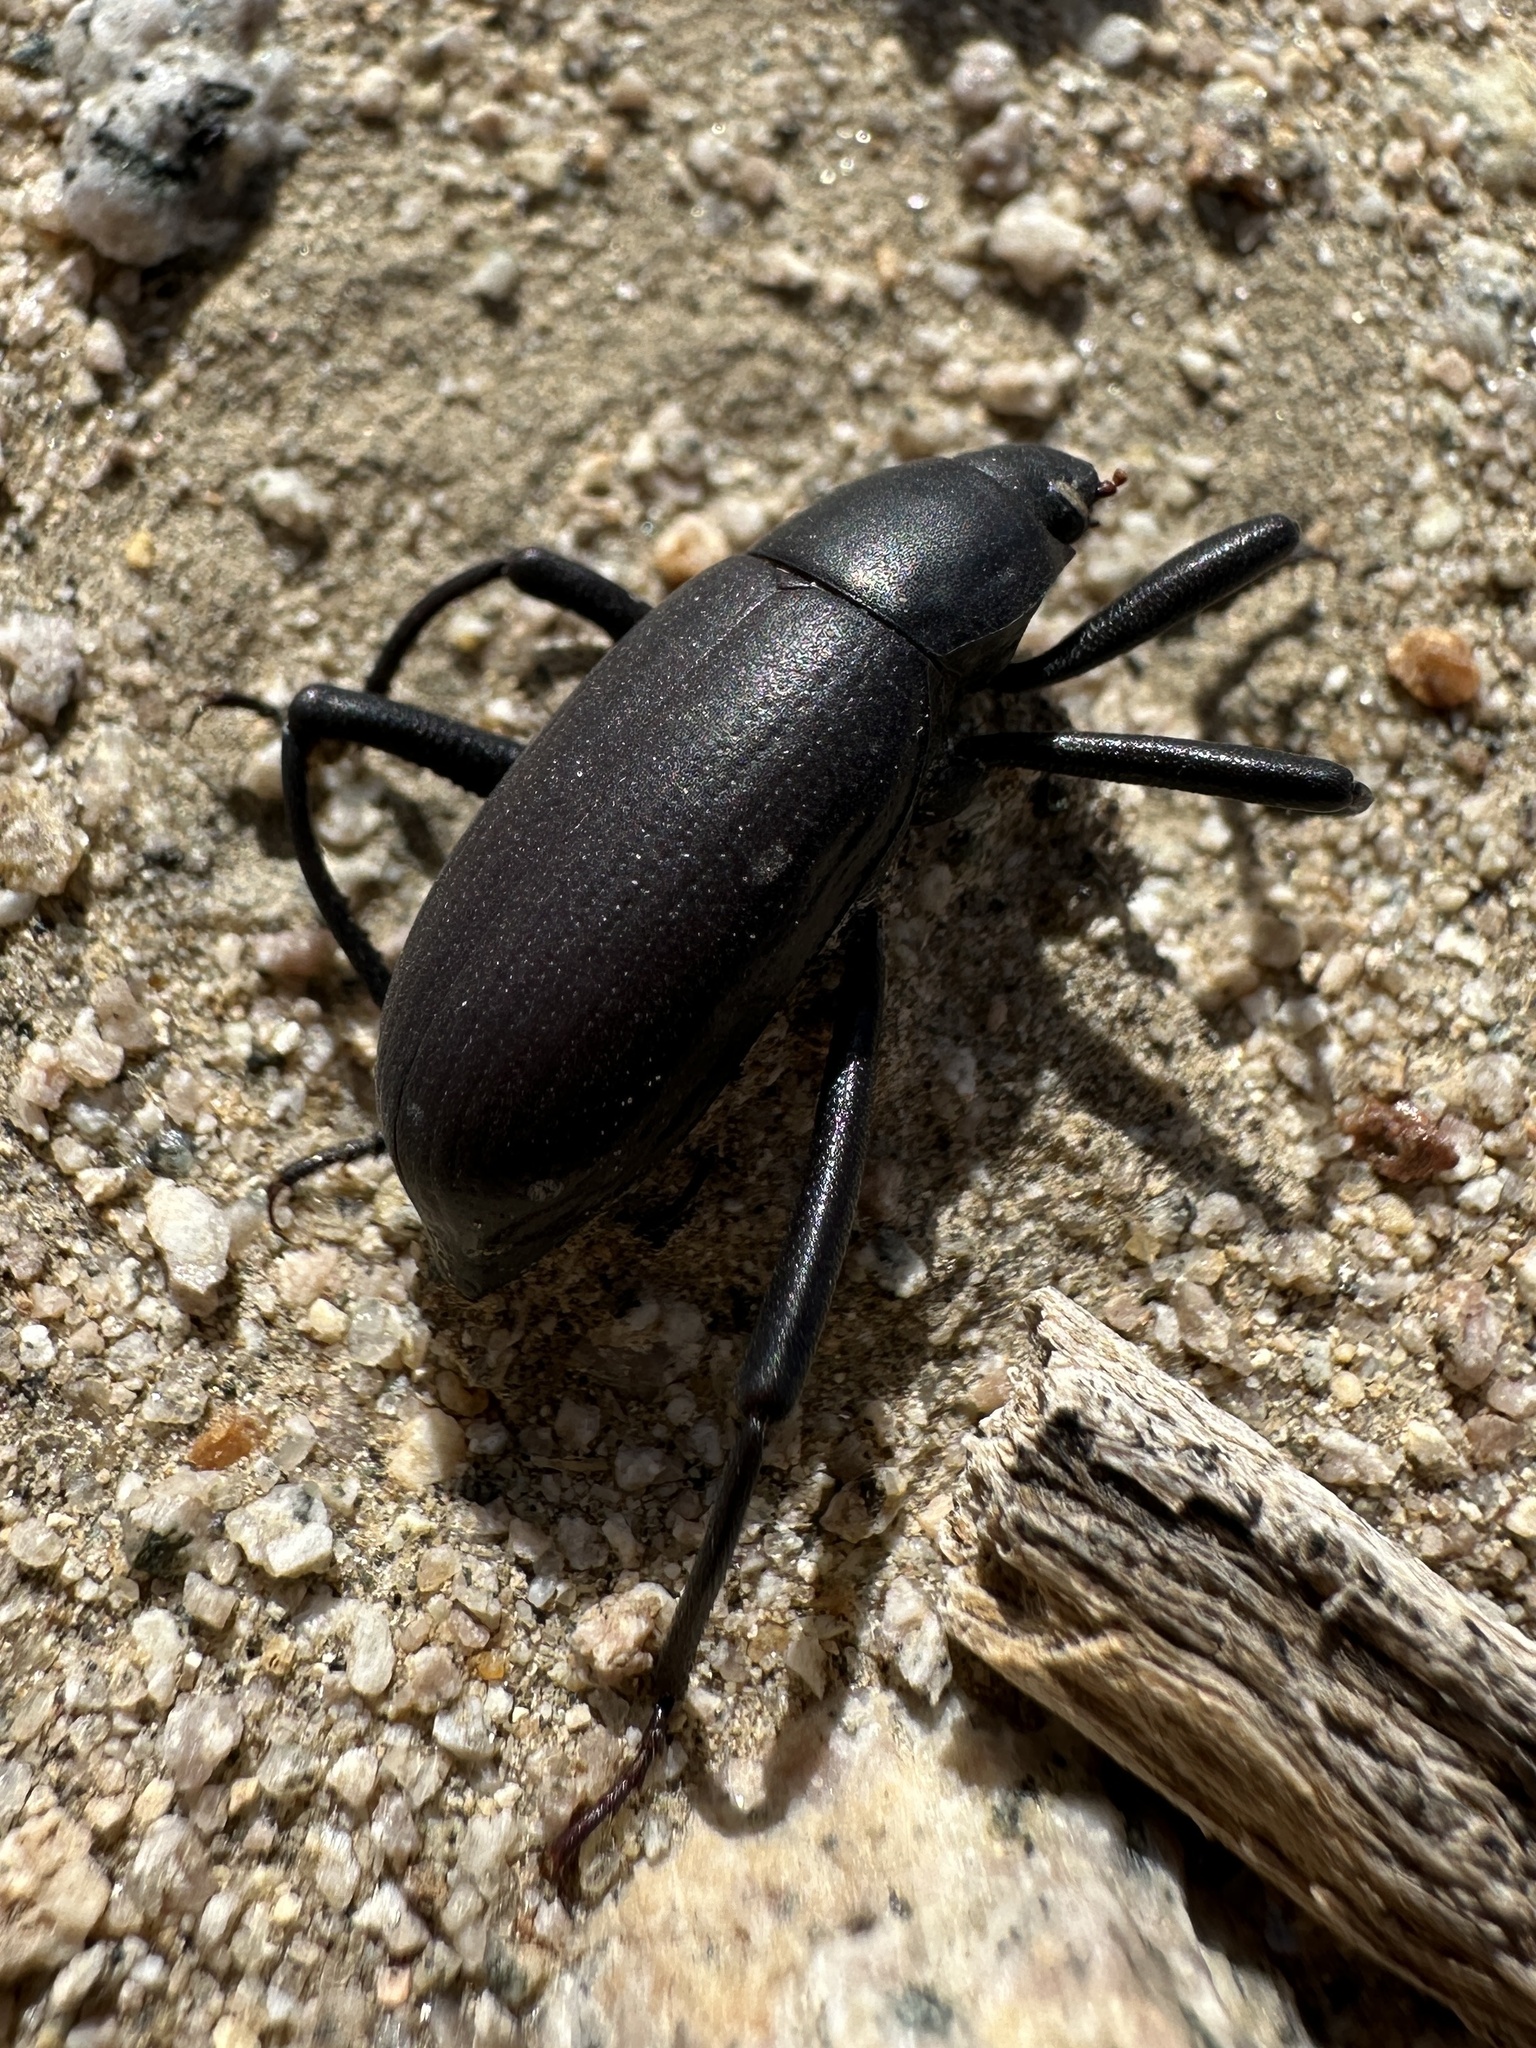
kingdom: Animalia
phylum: Arthropoda
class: Insecta
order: Coleoptera
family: Tenebrionidae
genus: Eleodes
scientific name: Eleodes subcylindrica
